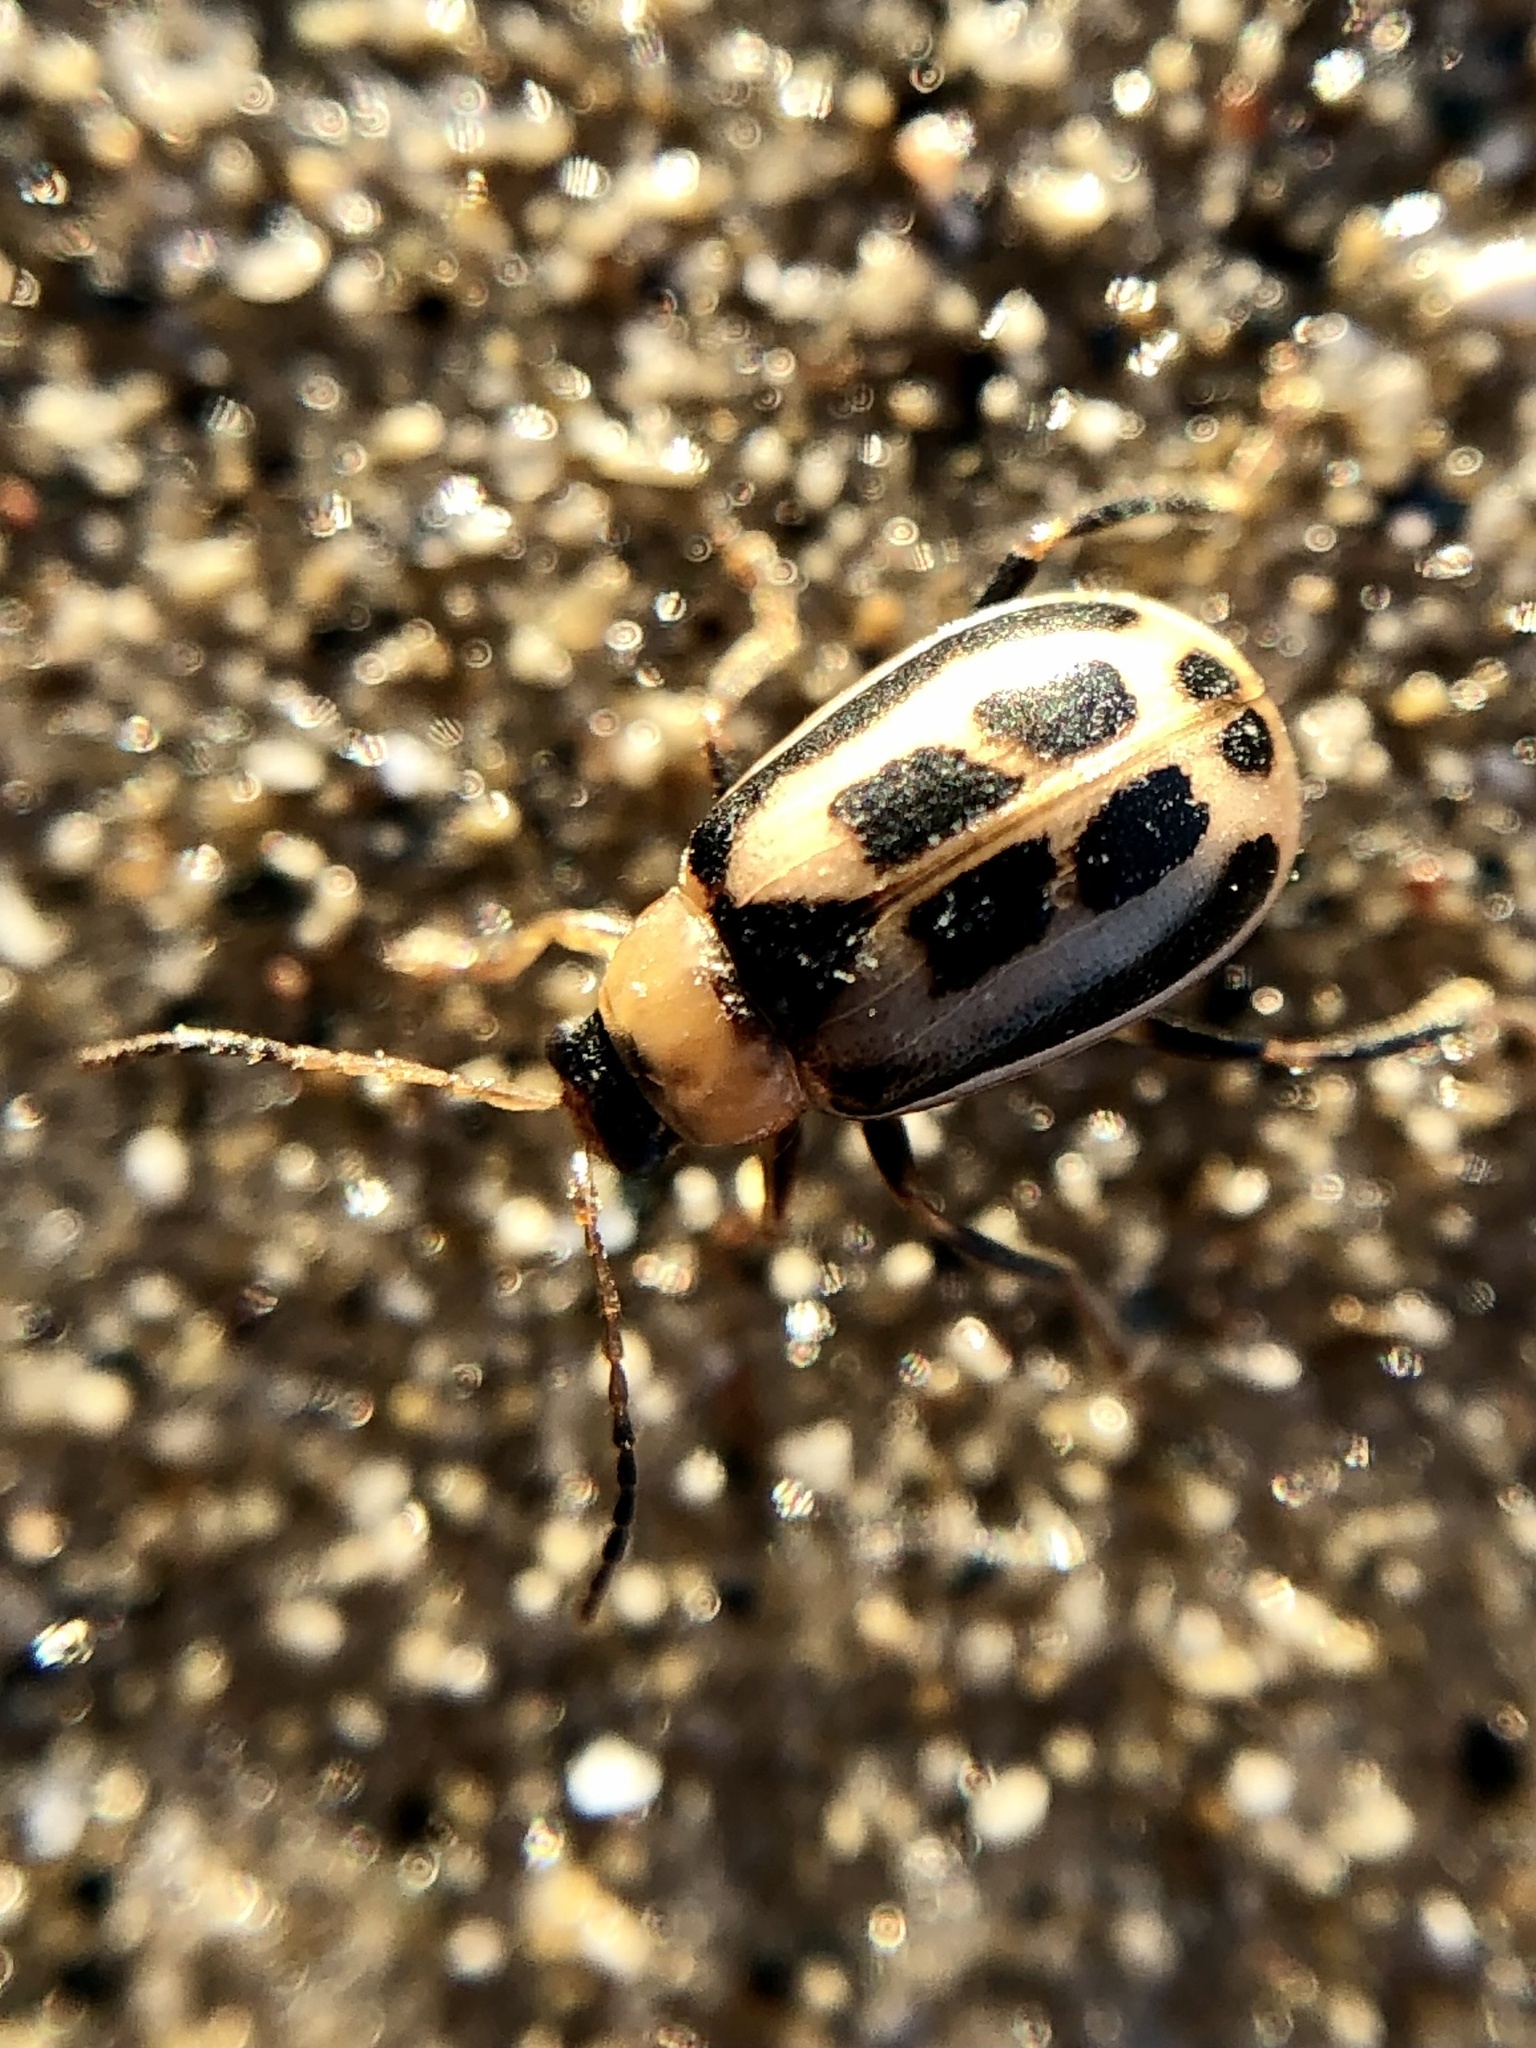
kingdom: Animalia
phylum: Arthropoda
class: Insecta
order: Coleoptera
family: Chrysomelidae
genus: Cerotoma
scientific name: Cerotoma trifurcata
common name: Bean leaf beetle
